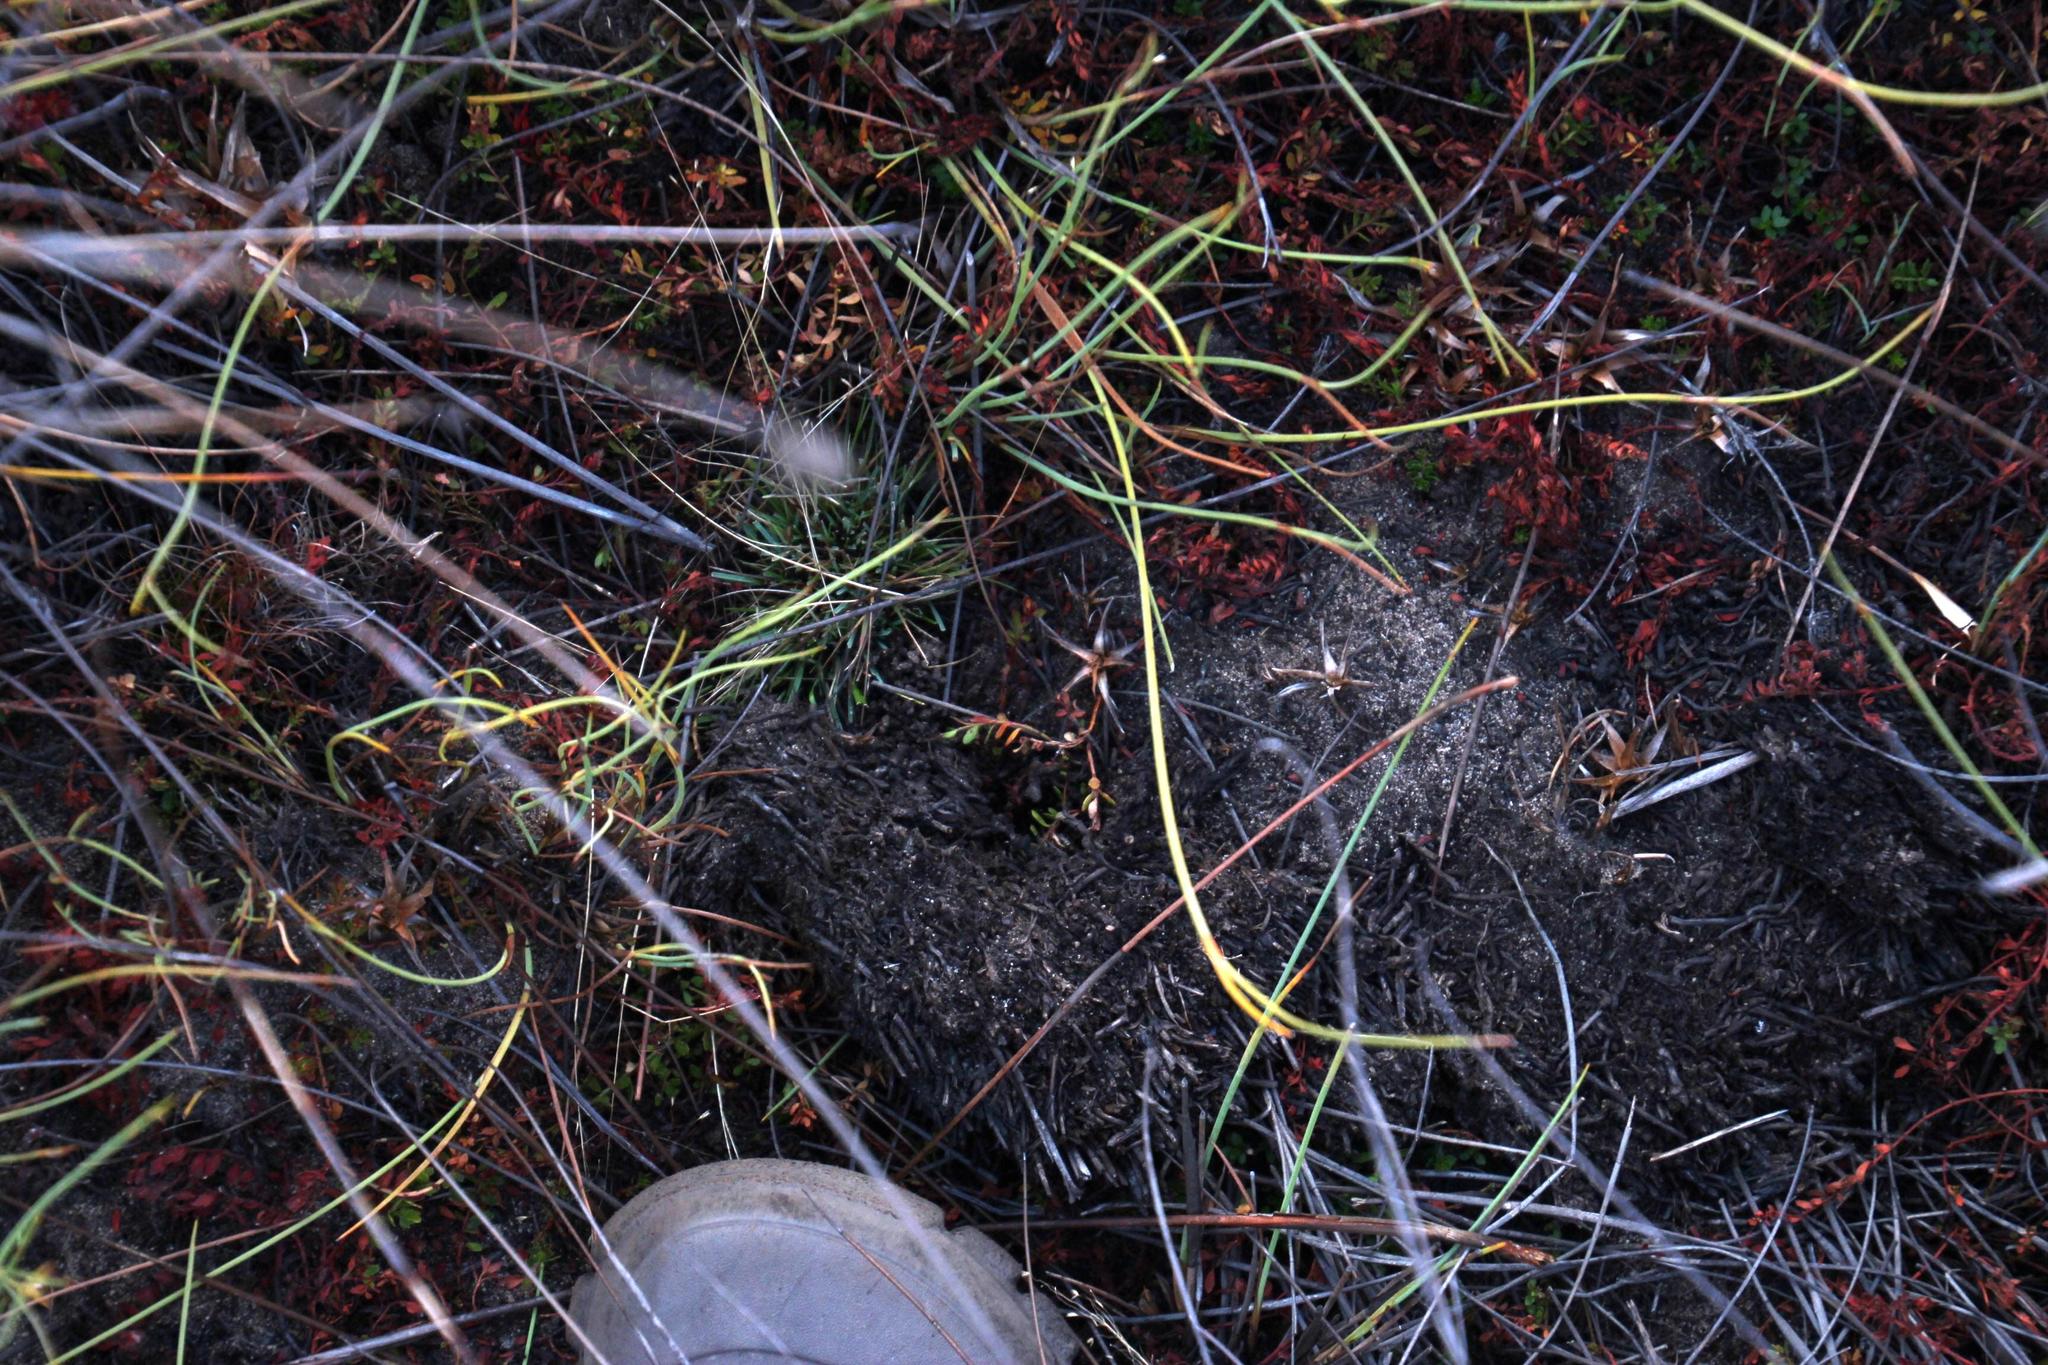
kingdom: Plantae
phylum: Tracheophyta
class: Magnoliopsida
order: Saxifragales
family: Haloragaceae
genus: Laurembergia
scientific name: Laurembergia repens
